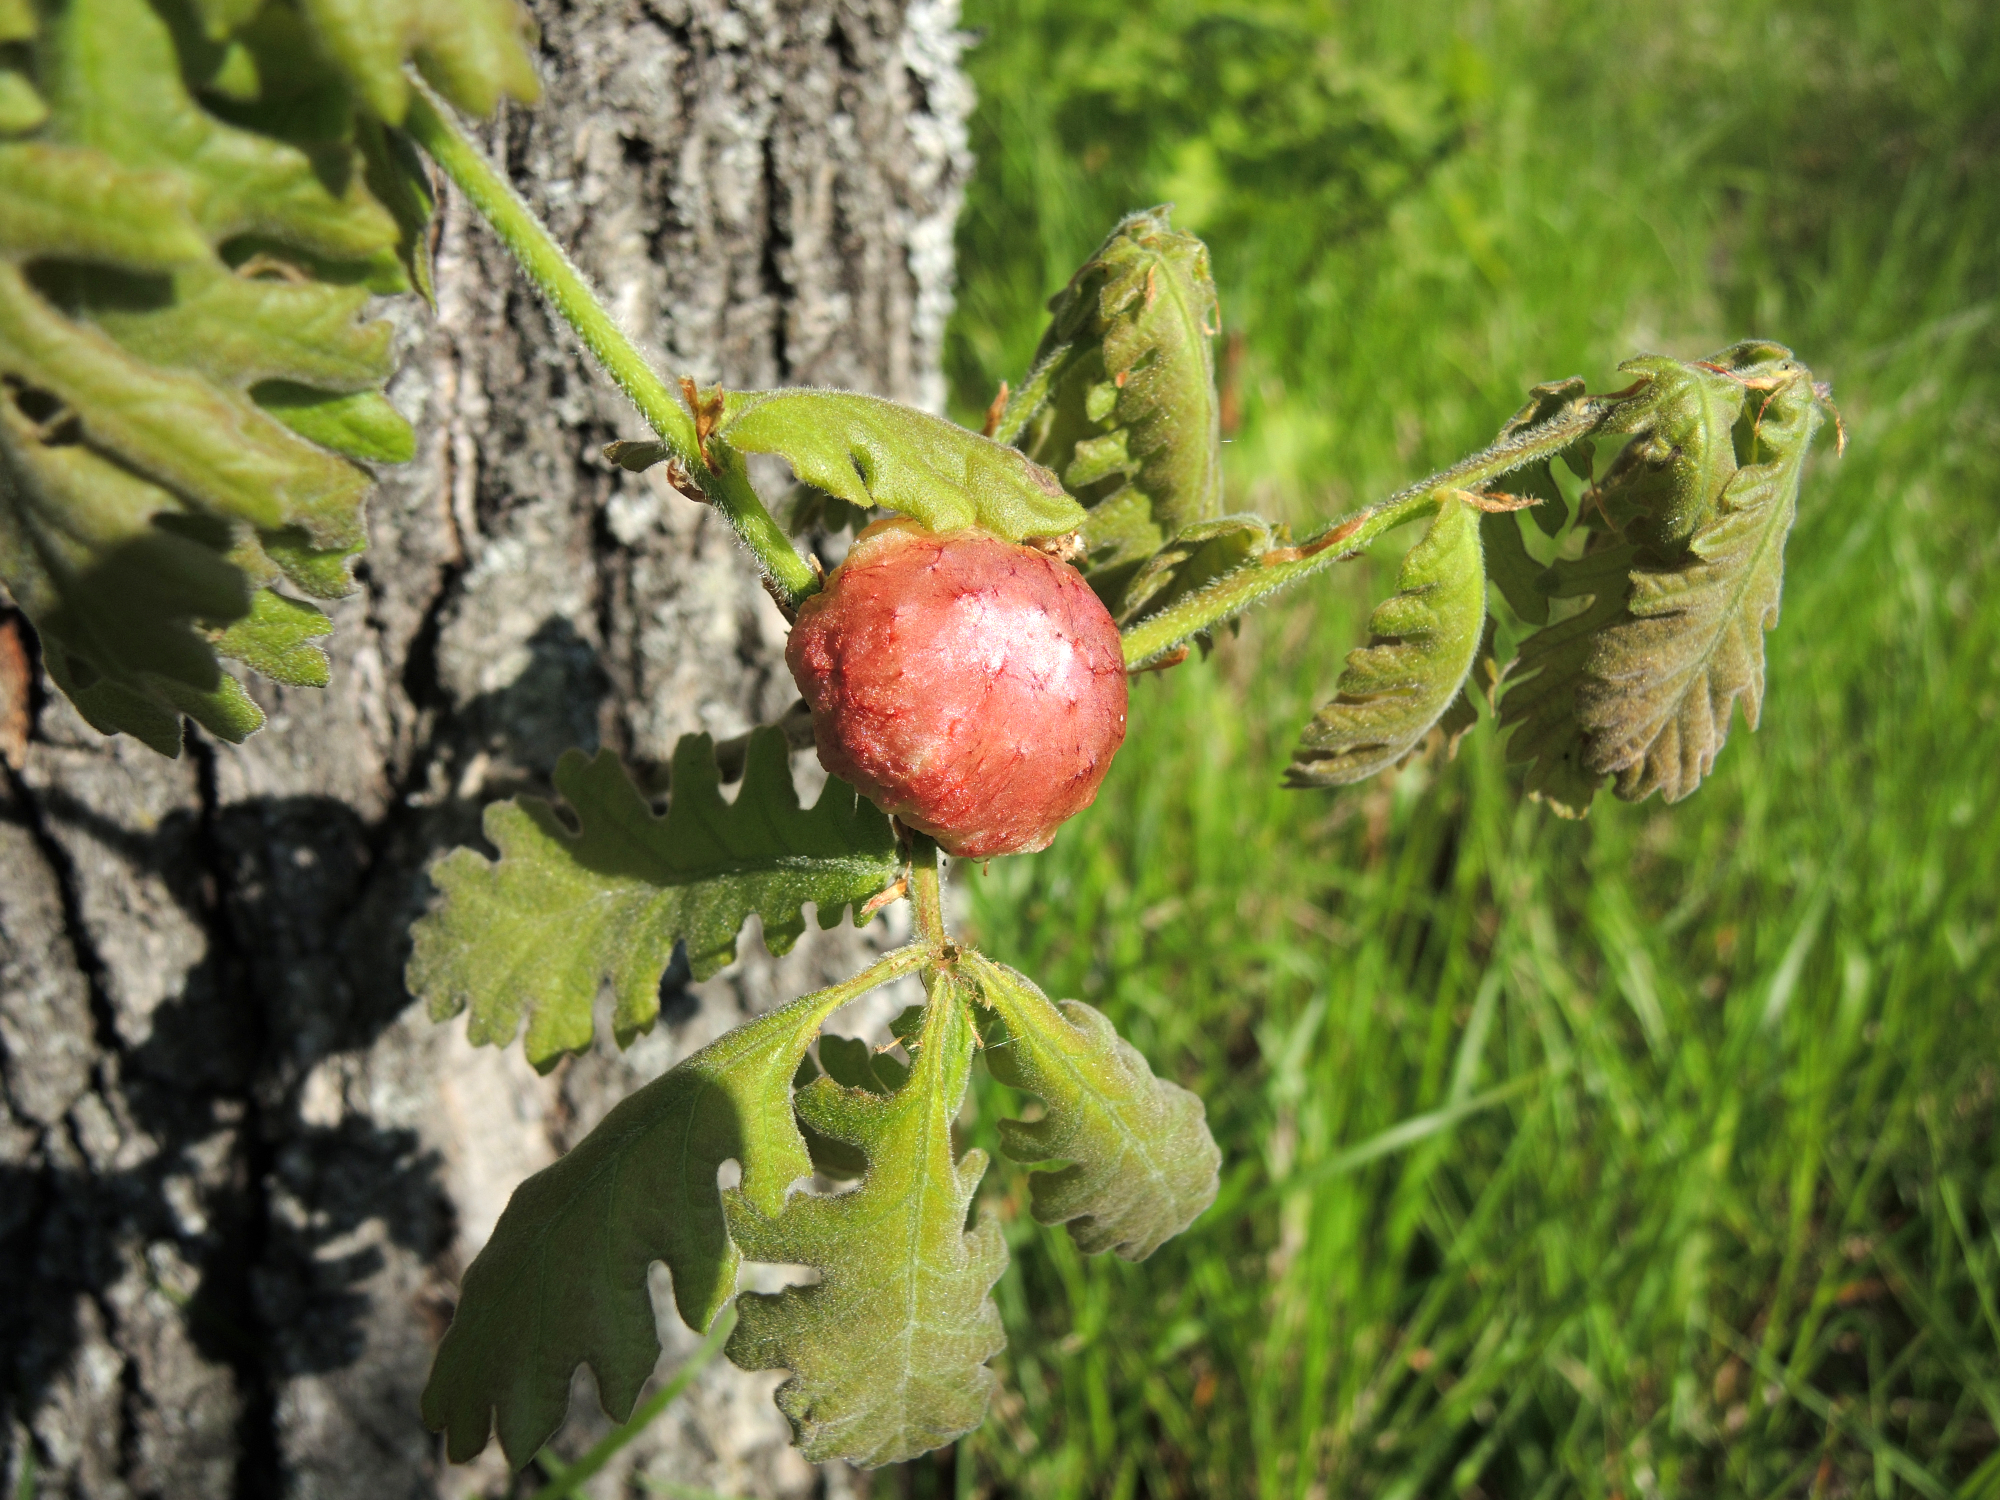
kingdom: Animalia
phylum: Arthropoda
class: Insecta
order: Hymenoptera
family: Cynipidae
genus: Biorhiza
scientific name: Biorhiza pallida
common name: Oak apple
